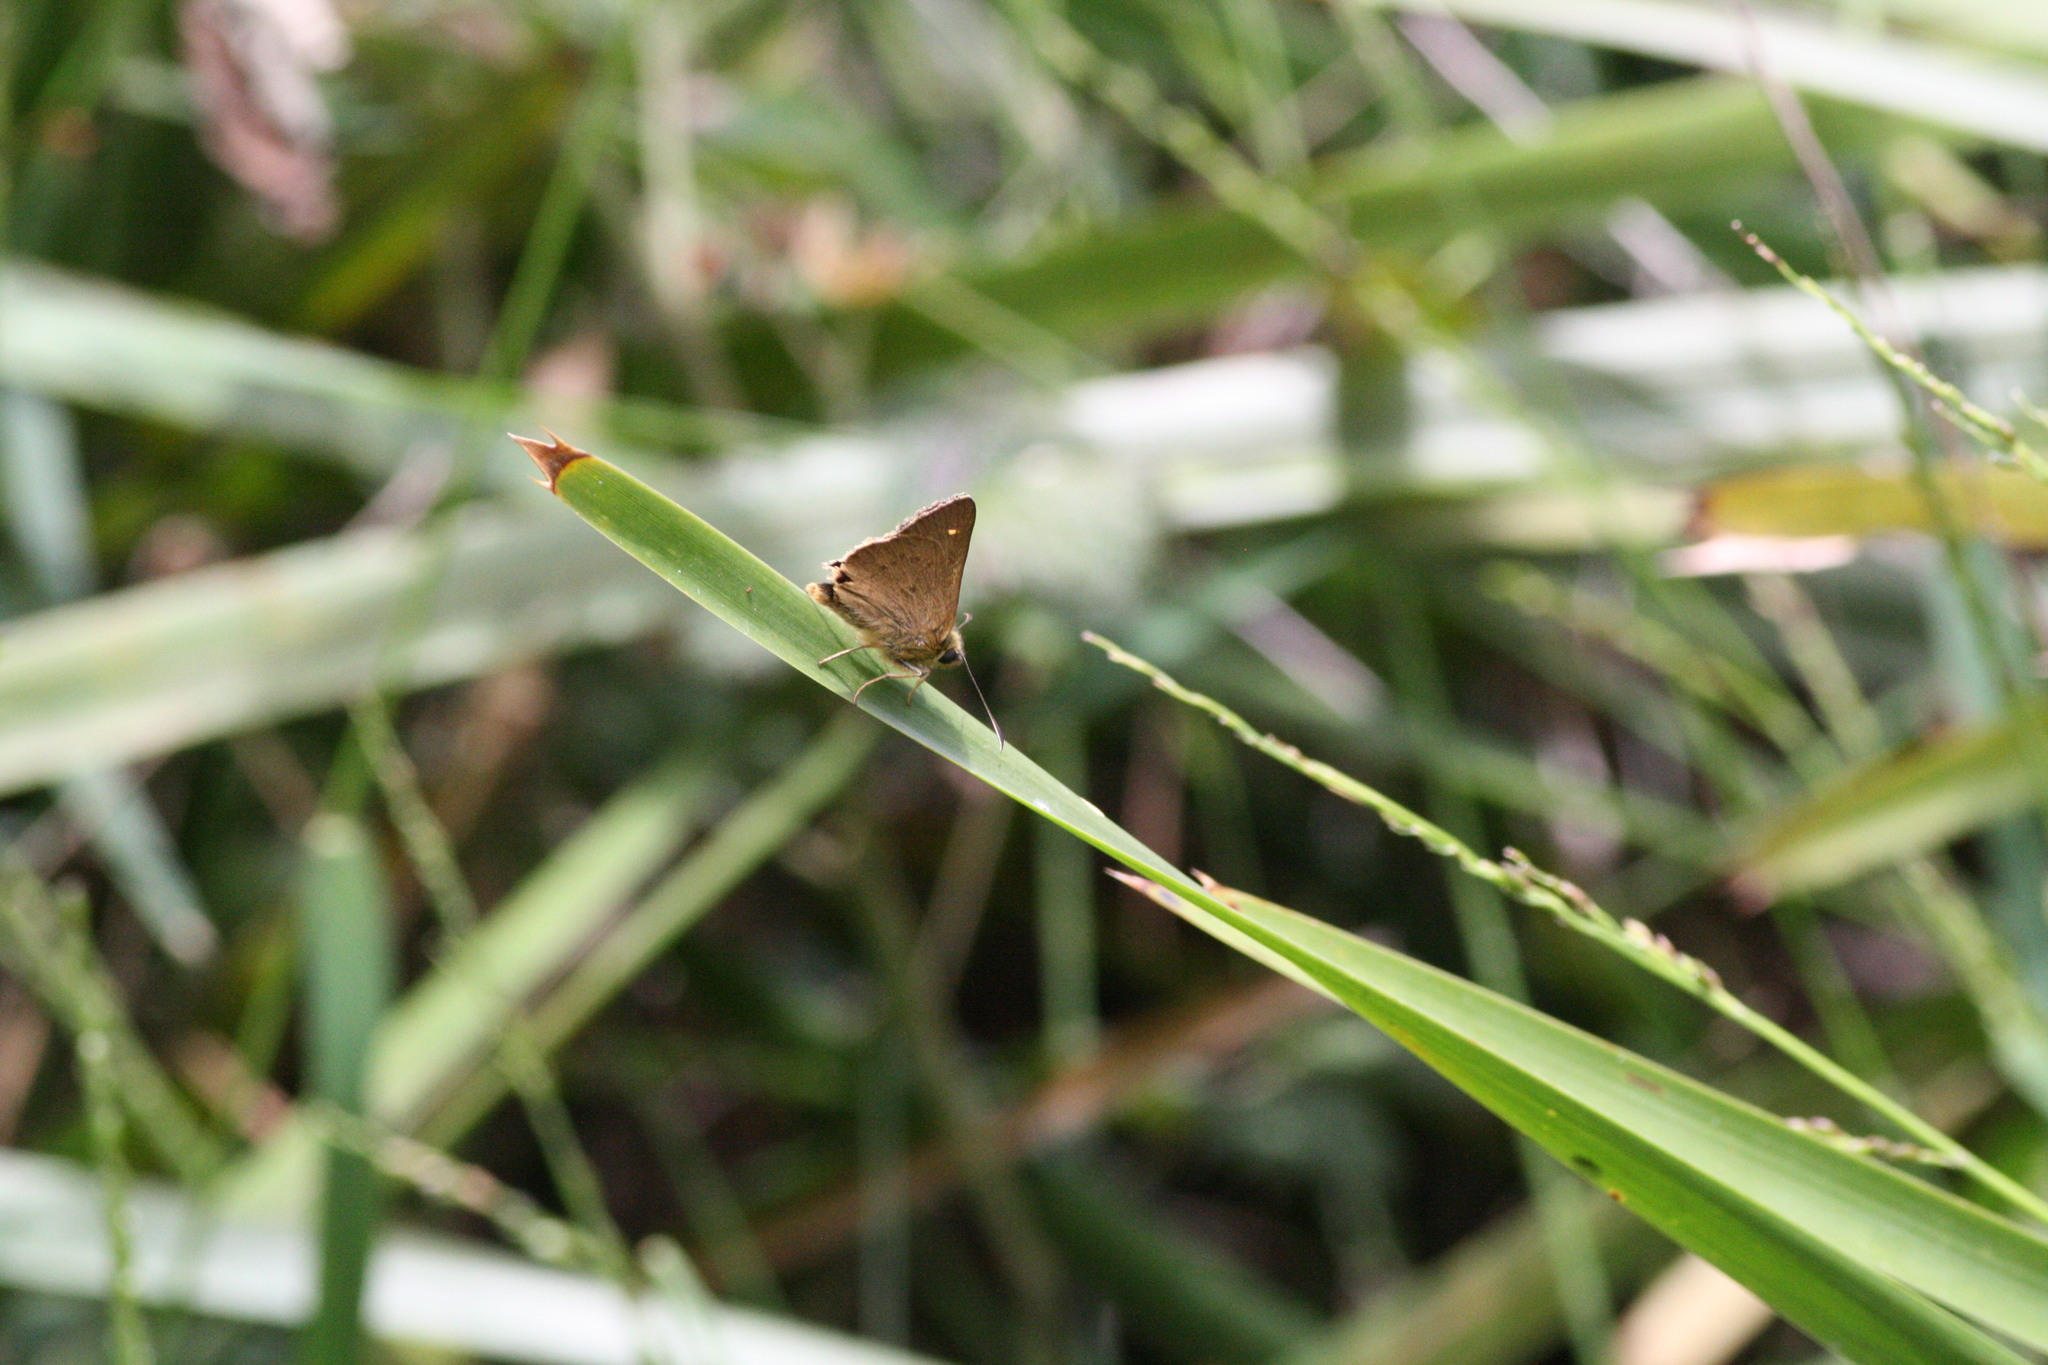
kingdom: Animalia
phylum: Arthropoda
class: Insecta
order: Lepidoptera
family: Hesperiidae
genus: Toxidia
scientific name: Toxidia
